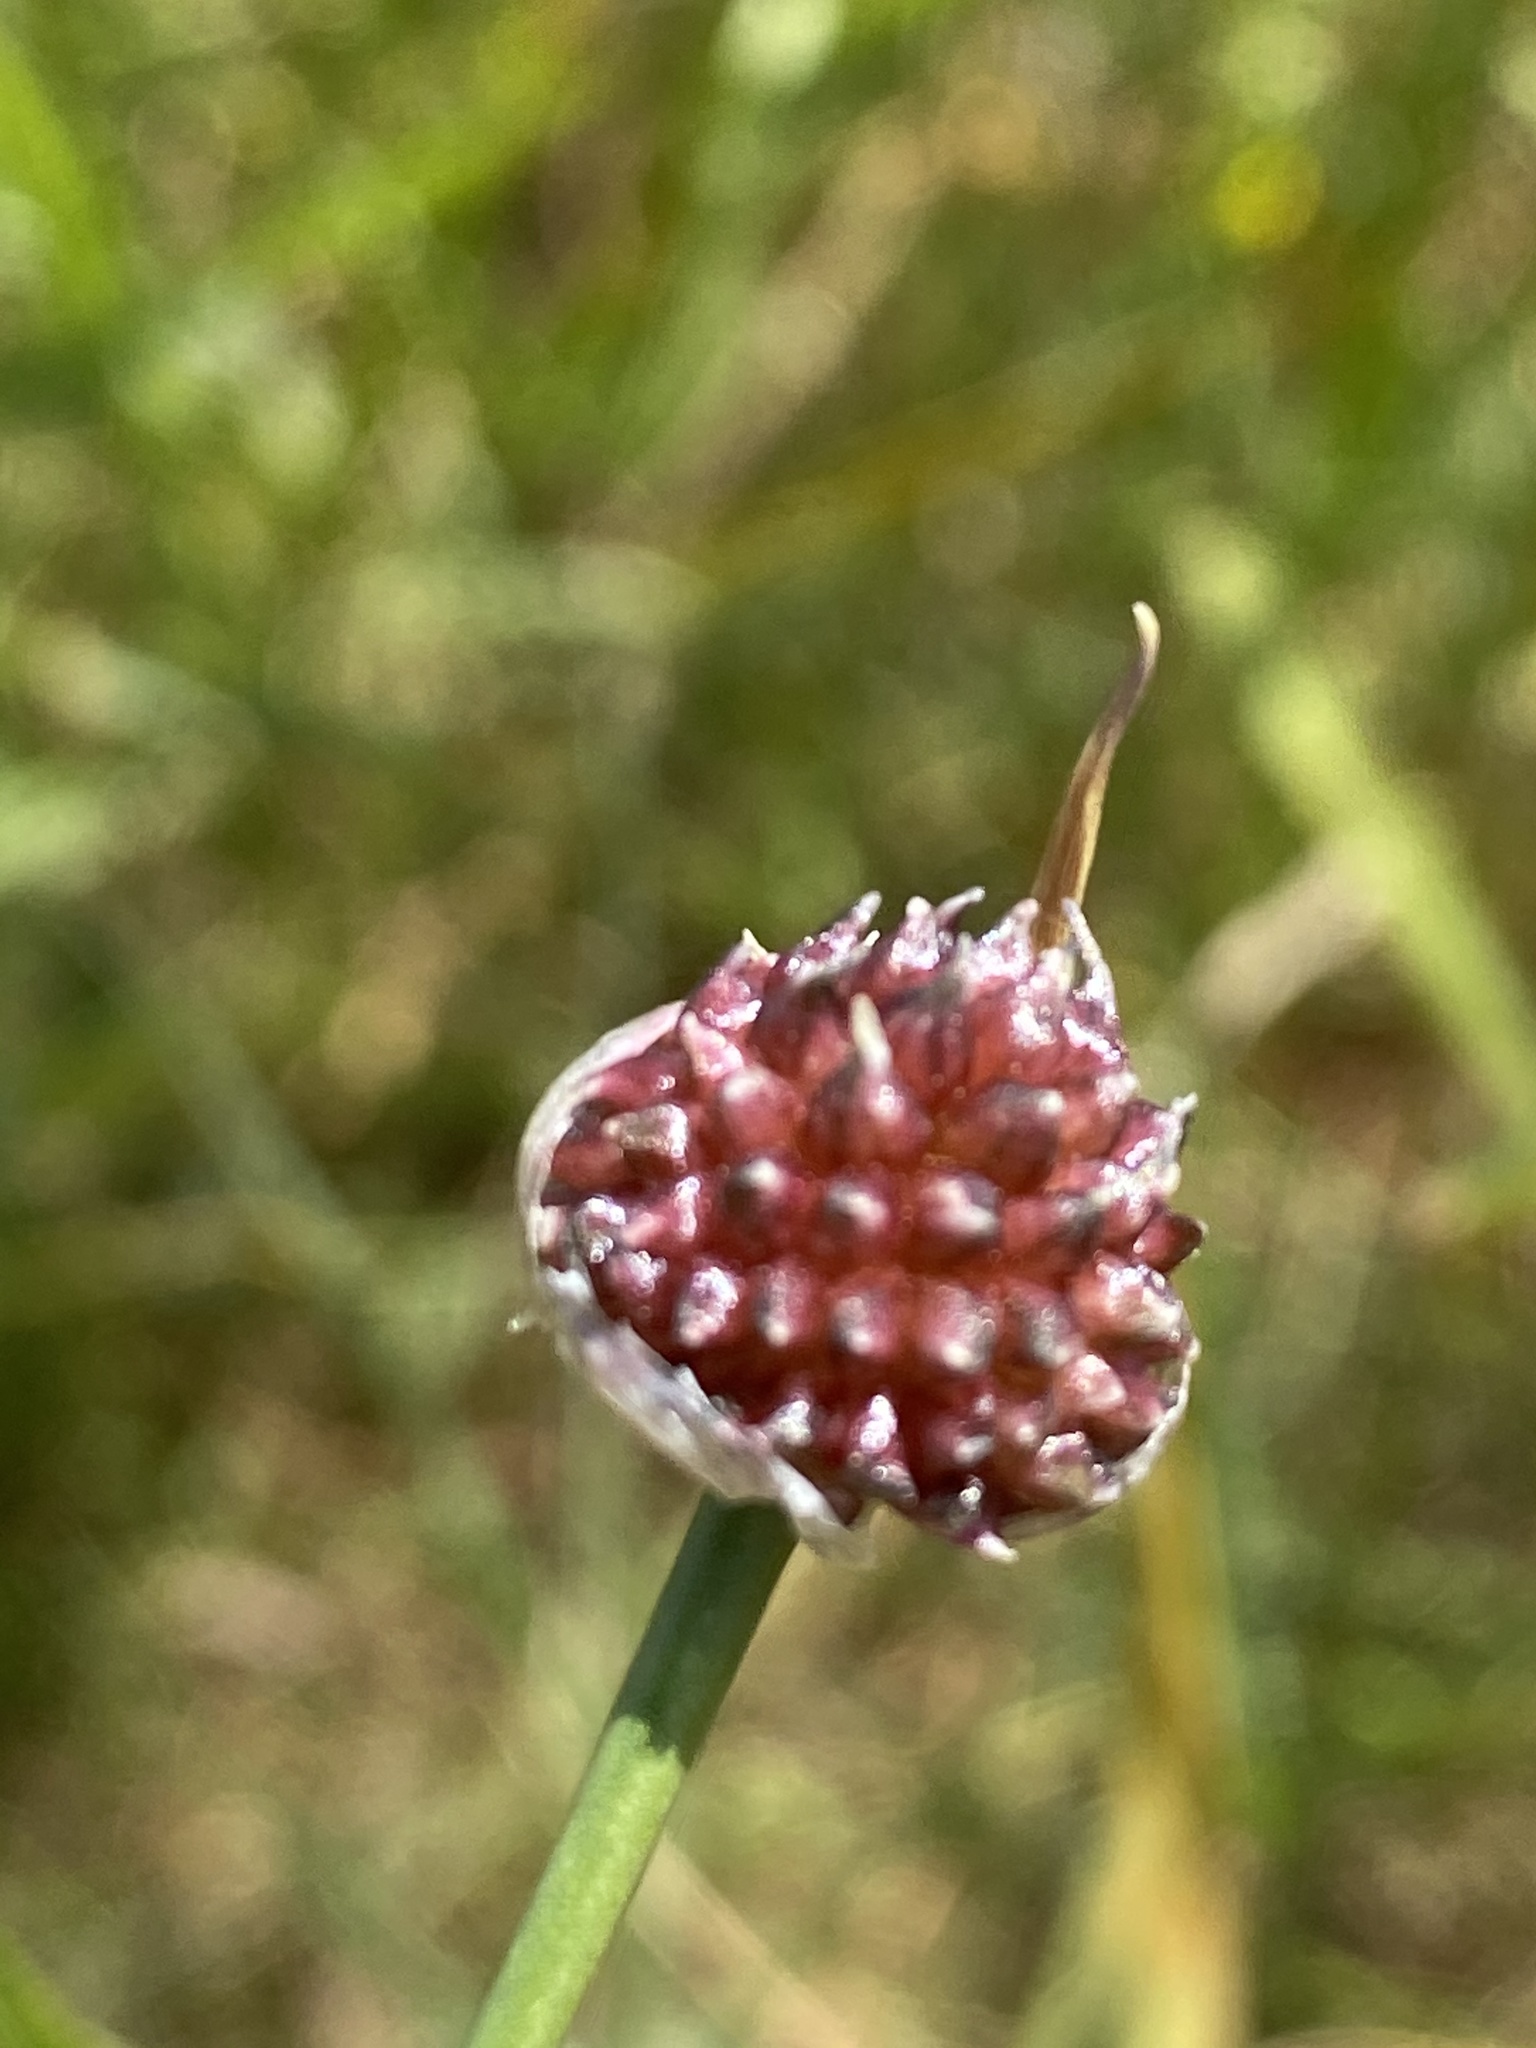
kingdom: Plantae
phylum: Tracheophyta
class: Liliopsida
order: Asparagales
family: Amaryllidaceae
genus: Allium
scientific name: Allium vineale
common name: Crow garlic
